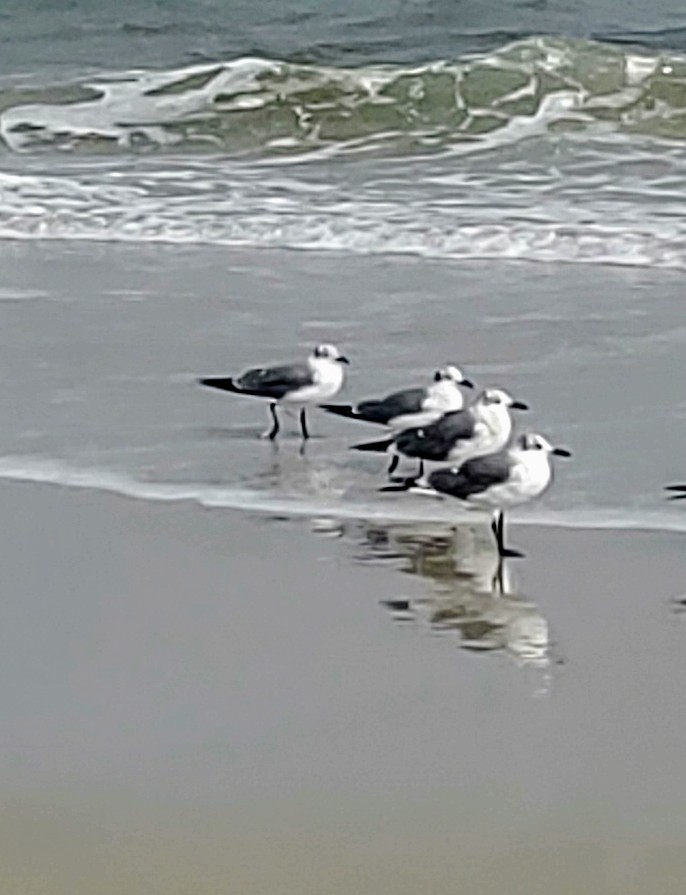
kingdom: Animalia
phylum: Chordata
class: Aves
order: Charadriiformes
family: Laridae
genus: Leucophaeus
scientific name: Leucophaeus atricilla
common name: Laughing gull
